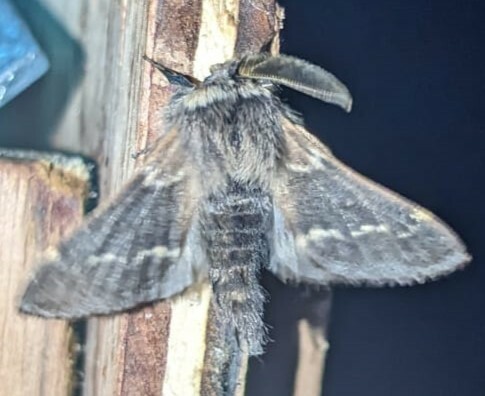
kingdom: Animalia
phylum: Arthropoda
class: Insecta
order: Lepidoptera
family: Lasiocampidae
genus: Poecilocampa
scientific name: Poecilocampa populi
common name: December moth
